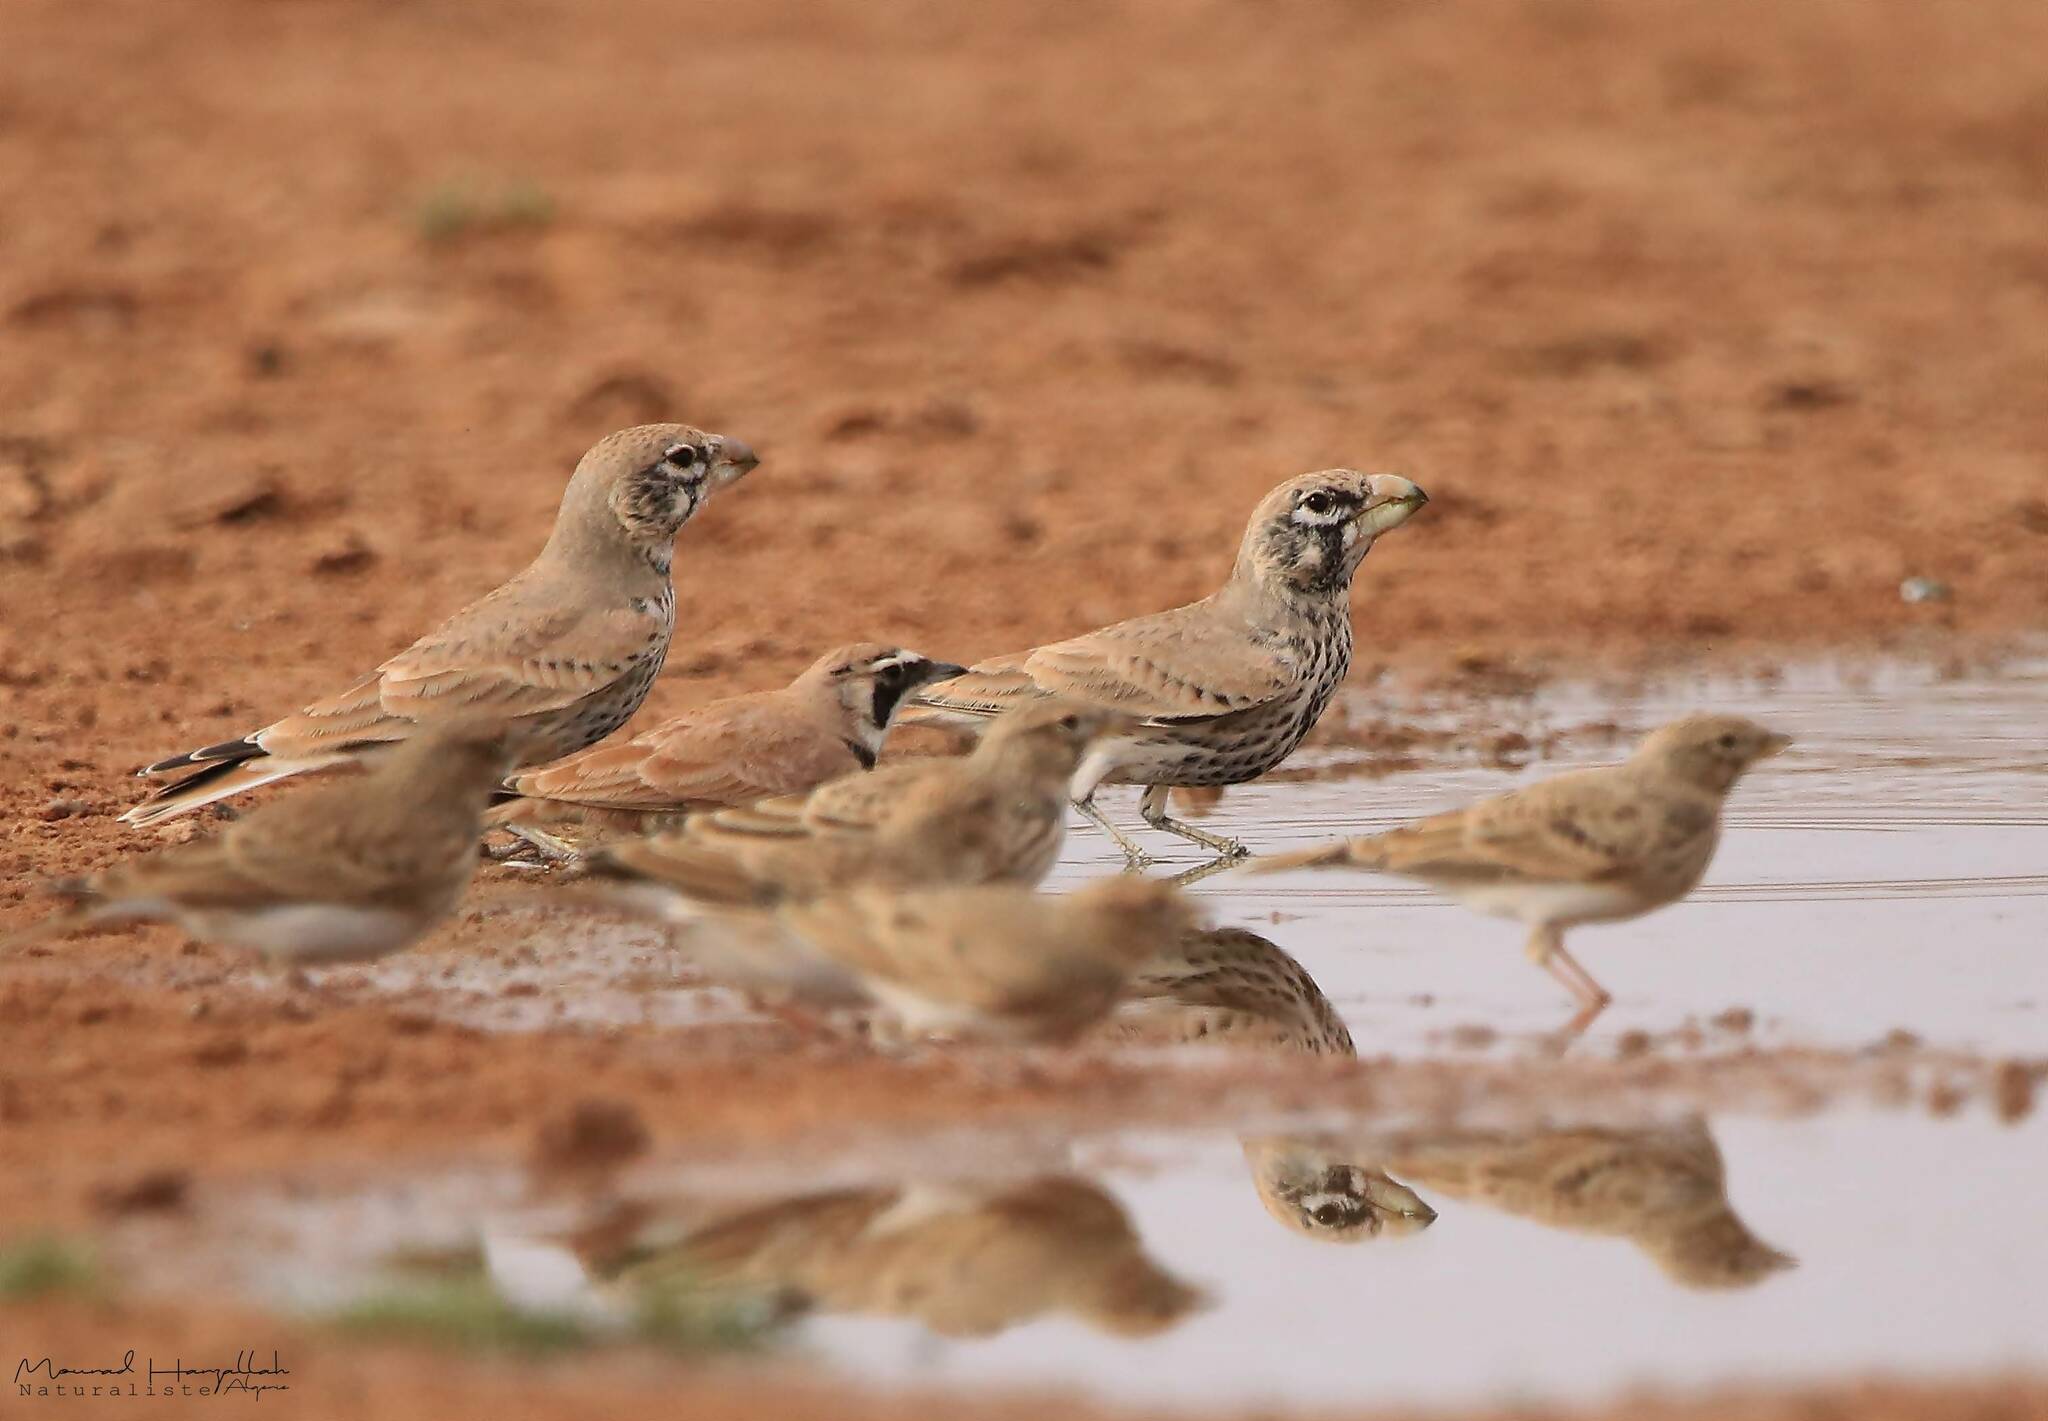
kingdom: Animalia
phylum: Chordata
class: Aves
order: Passeriformes
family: Alaudidae
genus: Ramphocoris
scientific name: Ramphocoris clotbey
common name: Thick-billed lark
